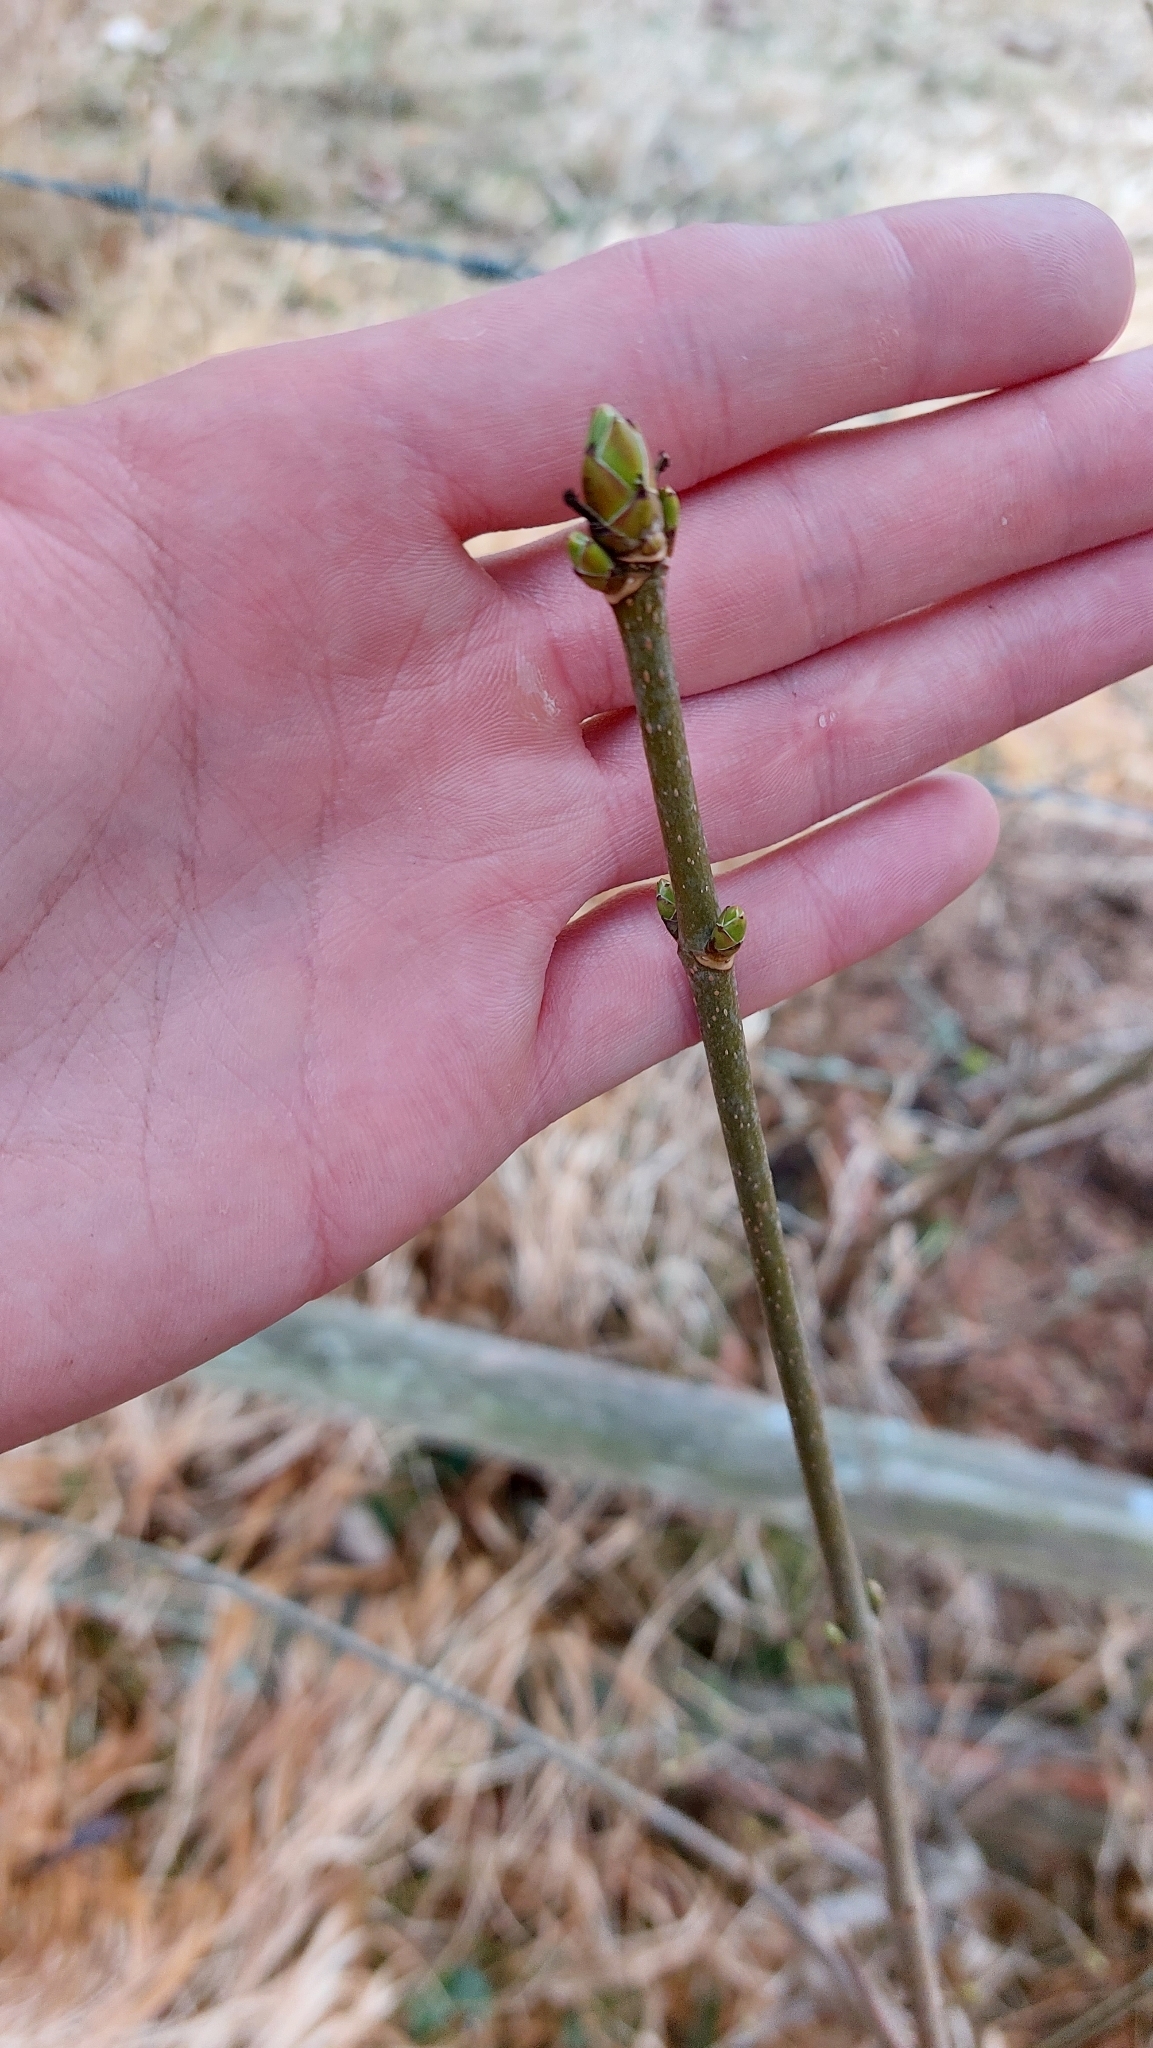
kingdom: Plantae
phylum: Tracheophyta
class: Magnoliopsida
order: Sapindales
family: Sapindaceae
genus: Acer
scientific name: Acer pseudoplatanus
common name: Sycamore
